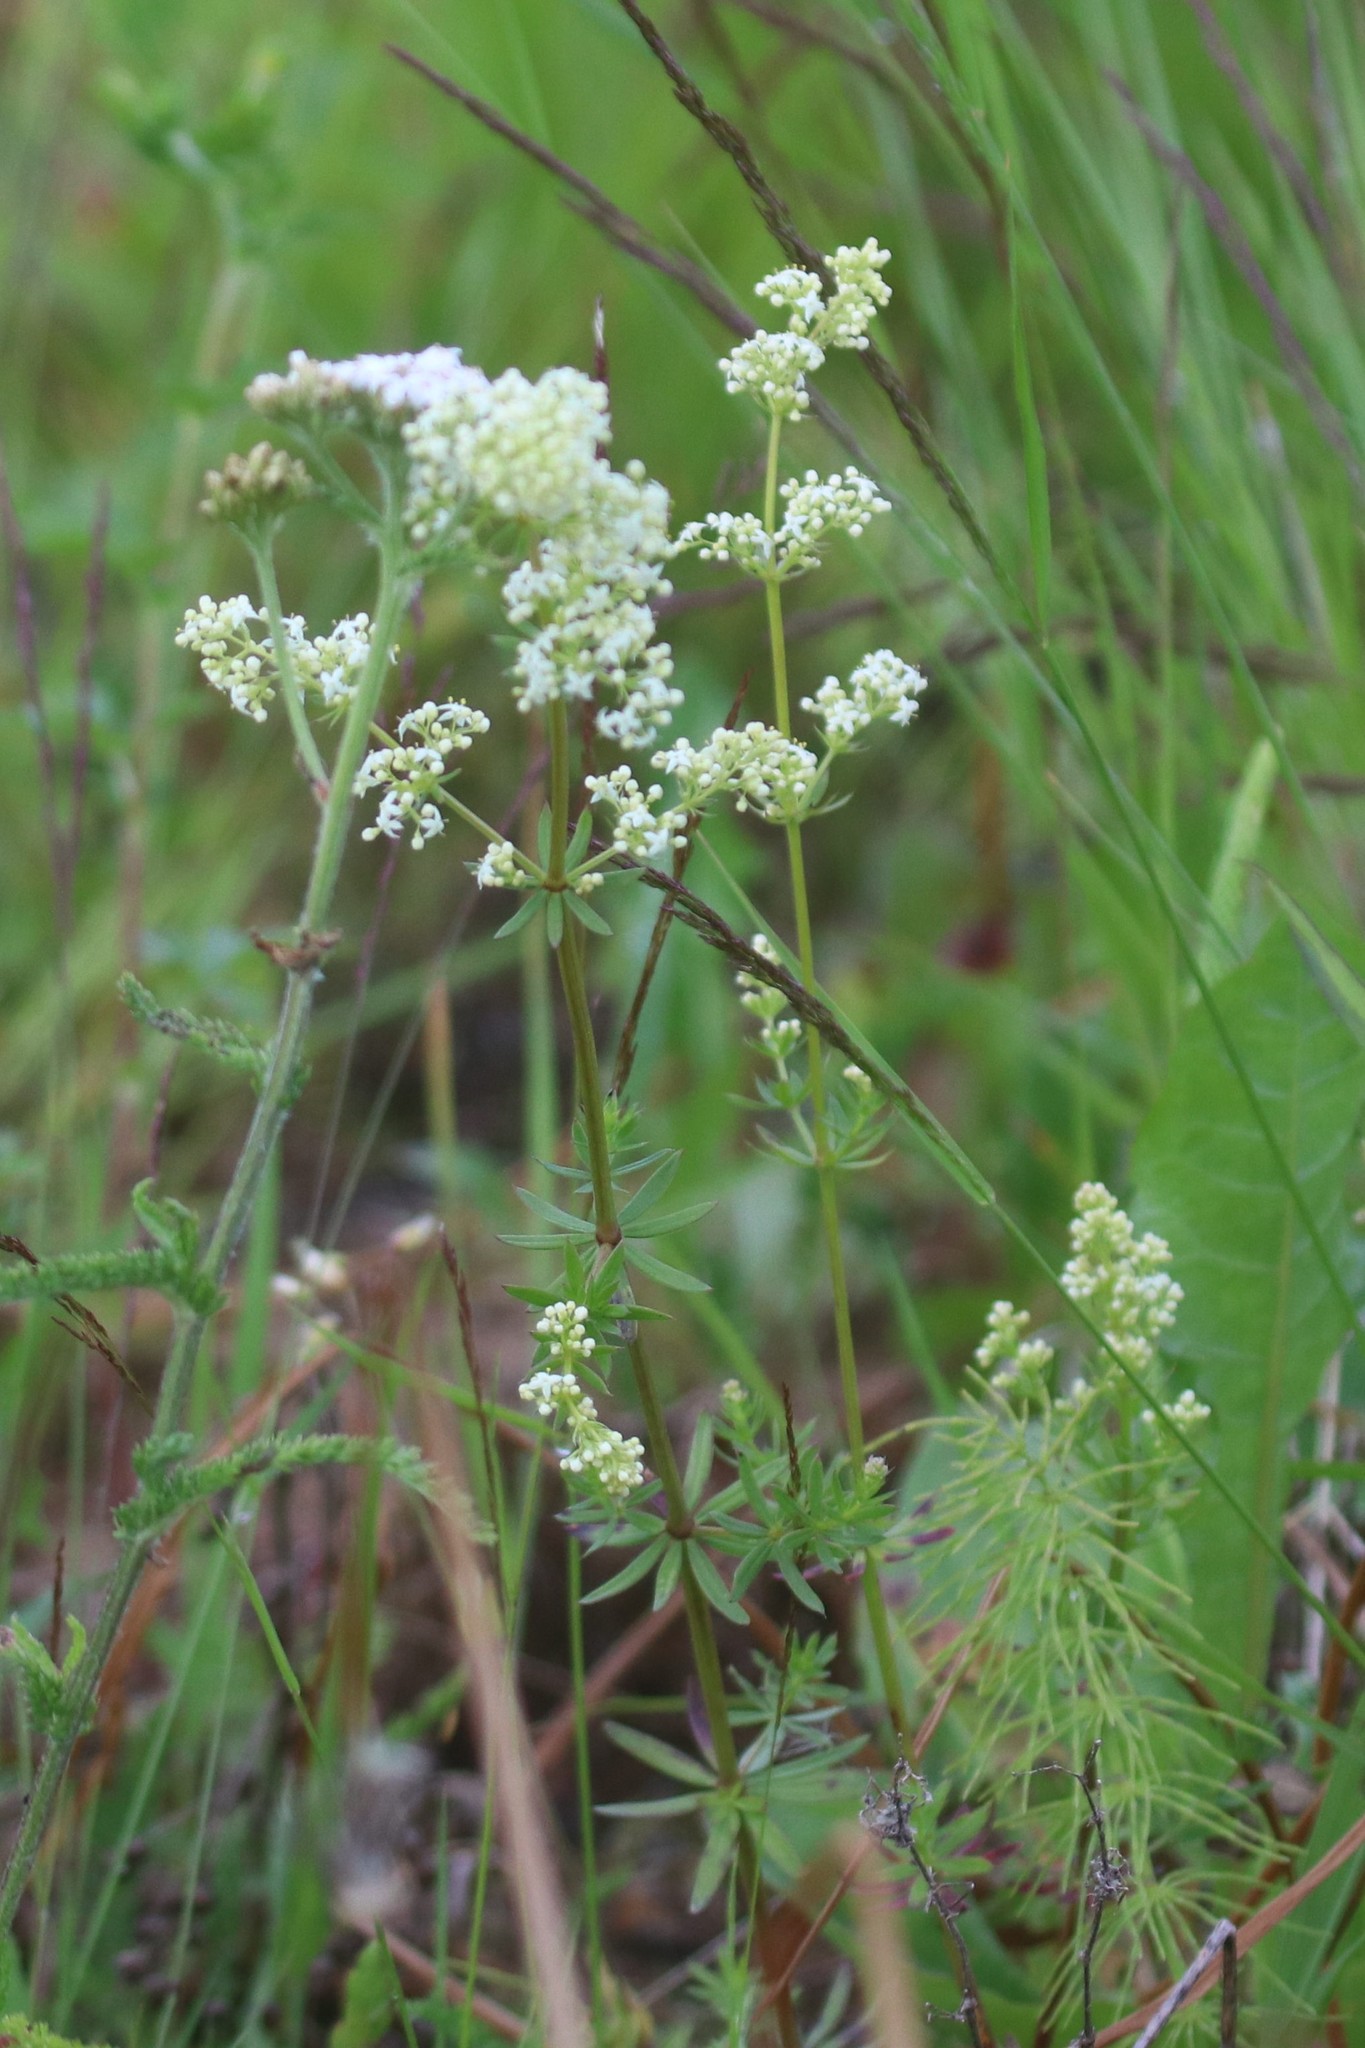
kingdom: Plantae
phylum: Tracheophyta
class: Magnoliopsida
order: Gentianales
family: Rubiaceae
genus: Galium
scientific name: Galium mollugo
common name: Hedge bedstraw
